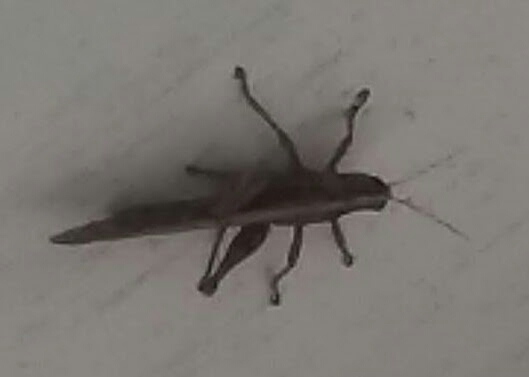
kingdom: Animalia
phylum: Arthropoda
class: Insecta
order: Orthoptera
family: Acrididae
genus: Schistocerca
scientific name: Schistocerca americana
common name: American bird locust
